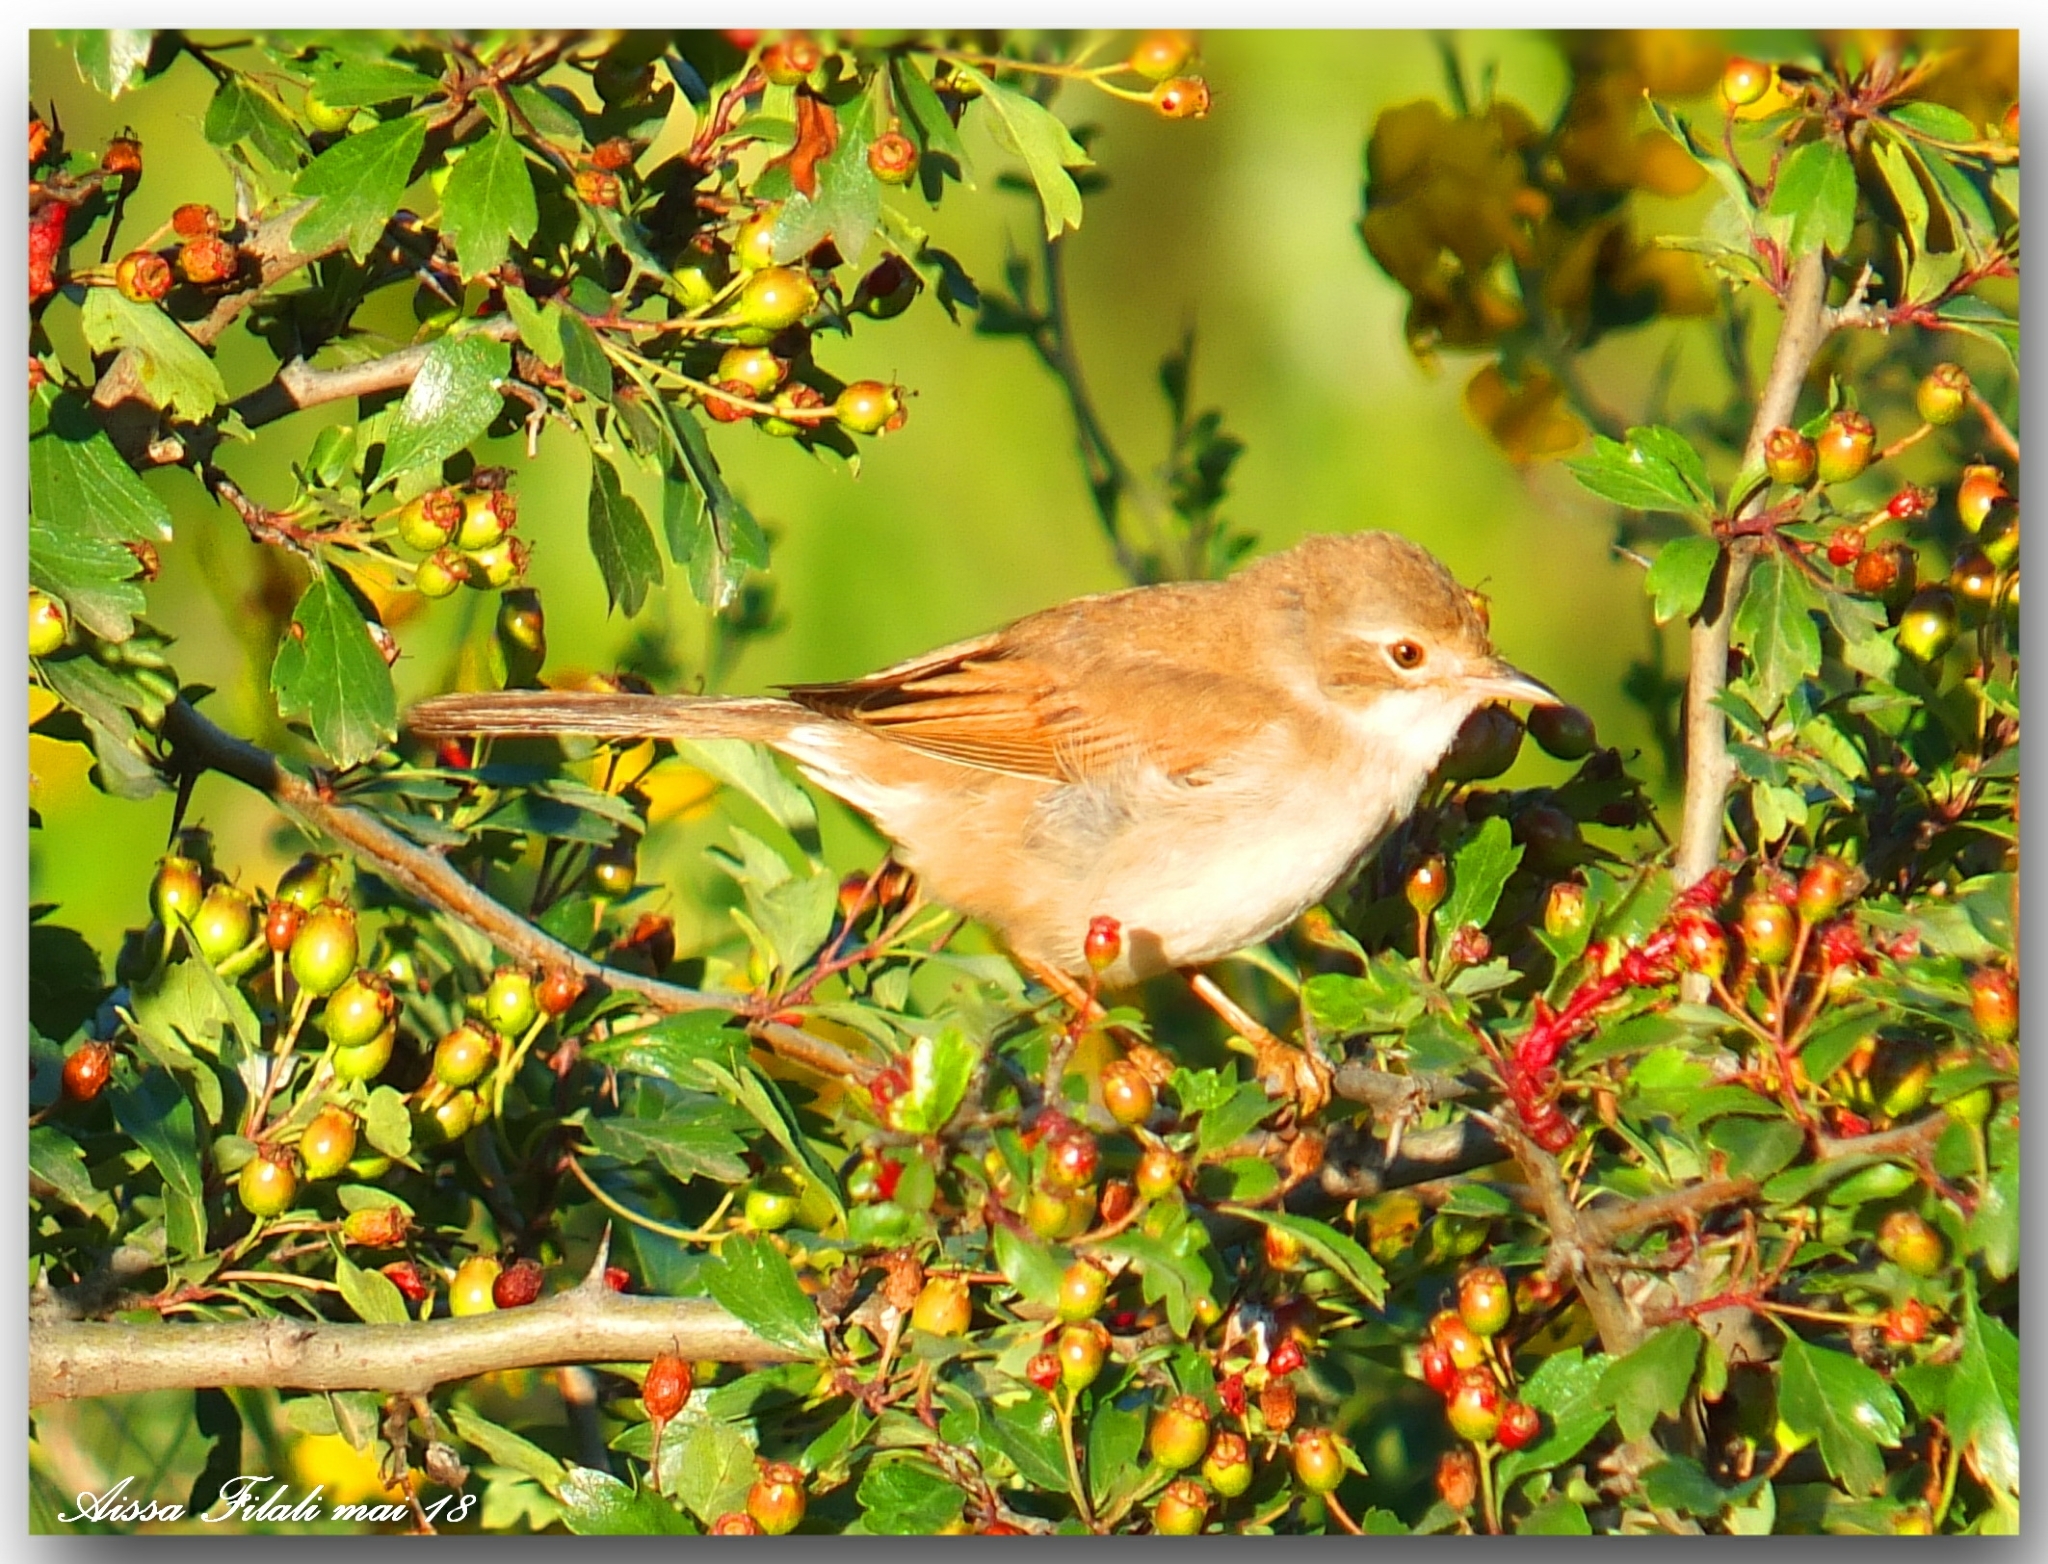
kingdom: Animalia
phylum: Chordata
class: Aves
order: Passeriformes
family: Sylviidae
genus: Sylvia
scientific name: Sylvia communis
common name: Common whitethroat
